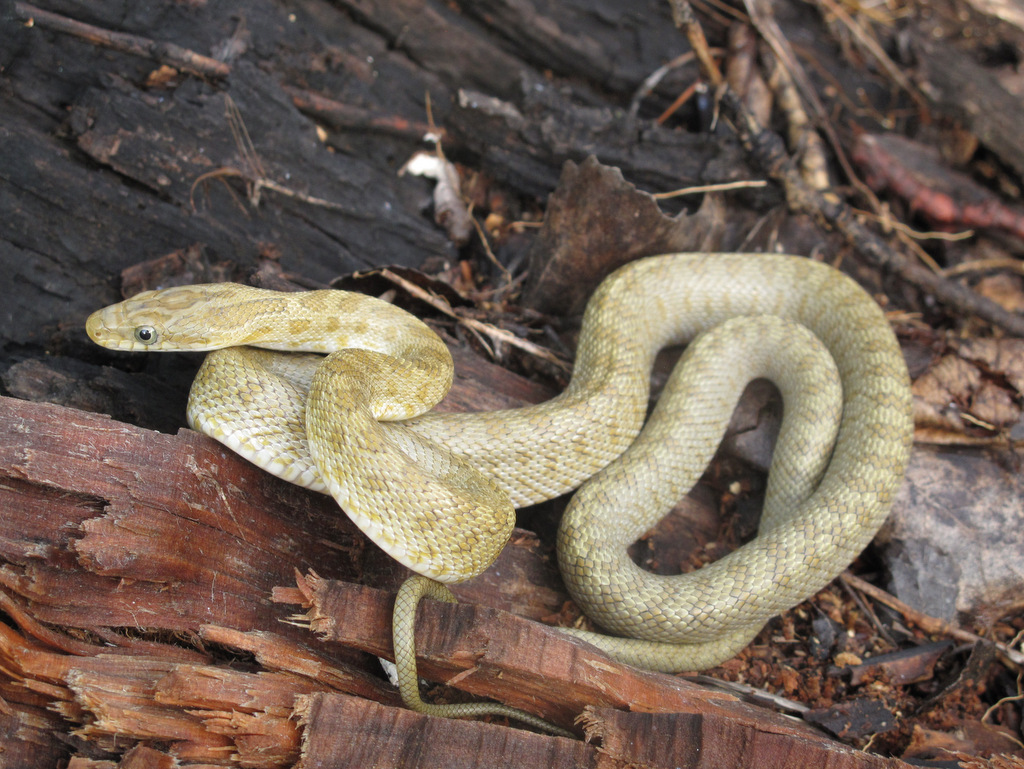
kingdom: Animalia
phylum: Chordata
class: Squamata
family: Colubridae
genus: Senticolis
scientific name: Senticolis triaspis
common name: Green rat snake
